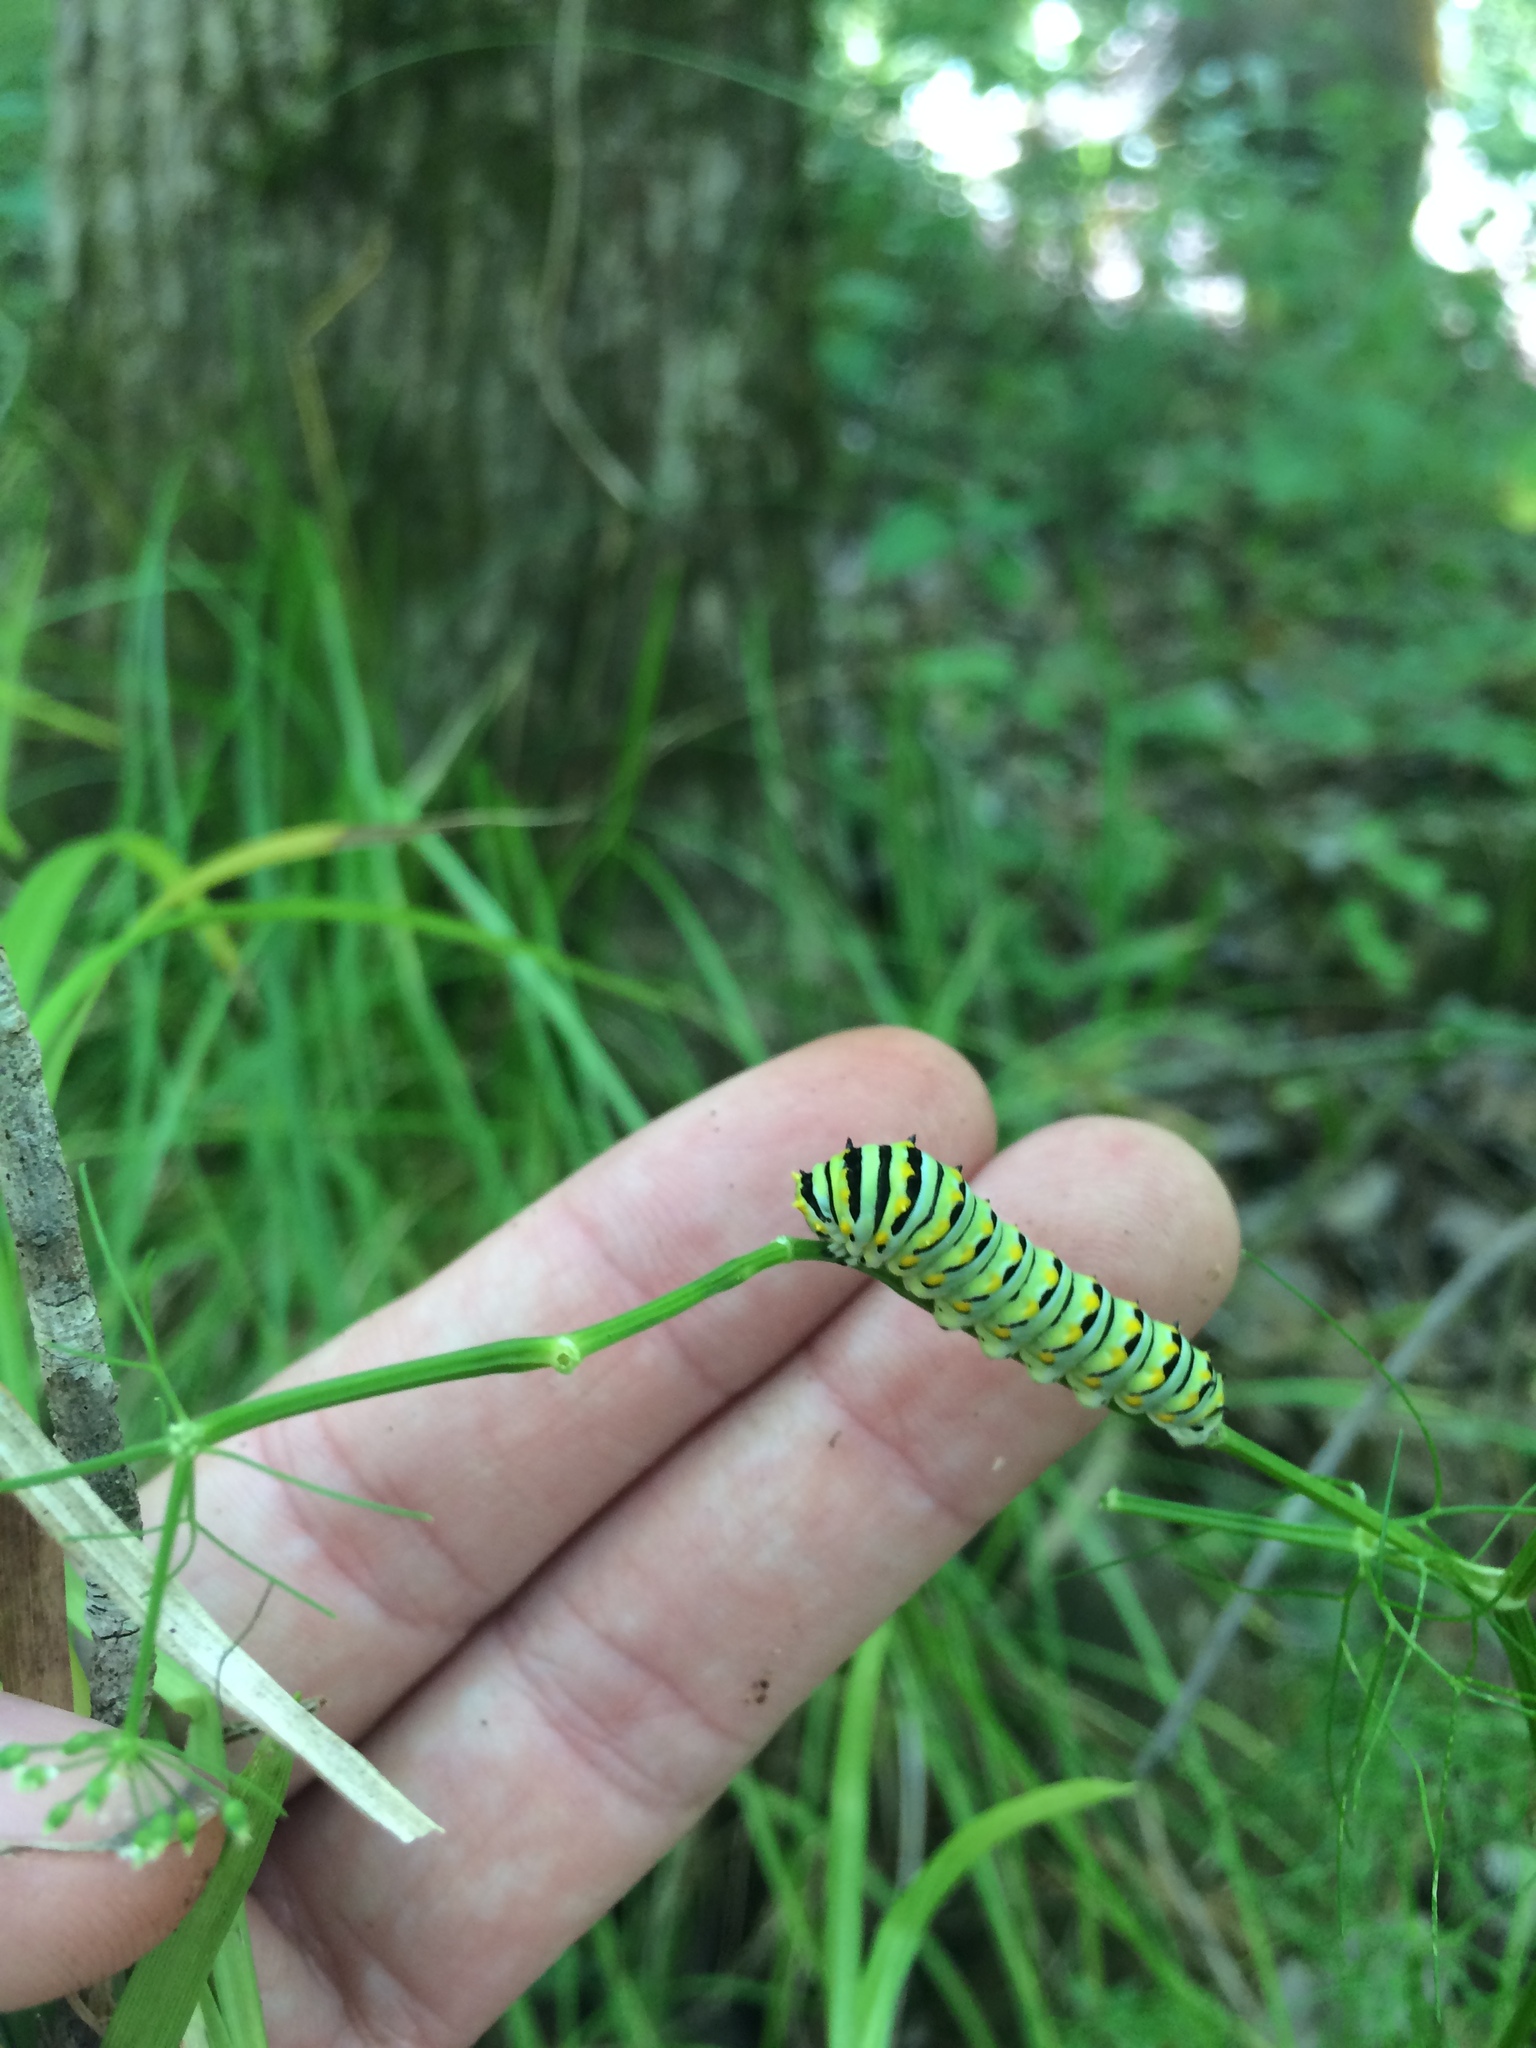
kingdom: Animalia
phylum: Arthropoda
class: Insecta
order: Lepidoptera
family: Papilionidae
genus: Papilio
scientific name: Papilio polyxenes
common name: Black swallowtail
